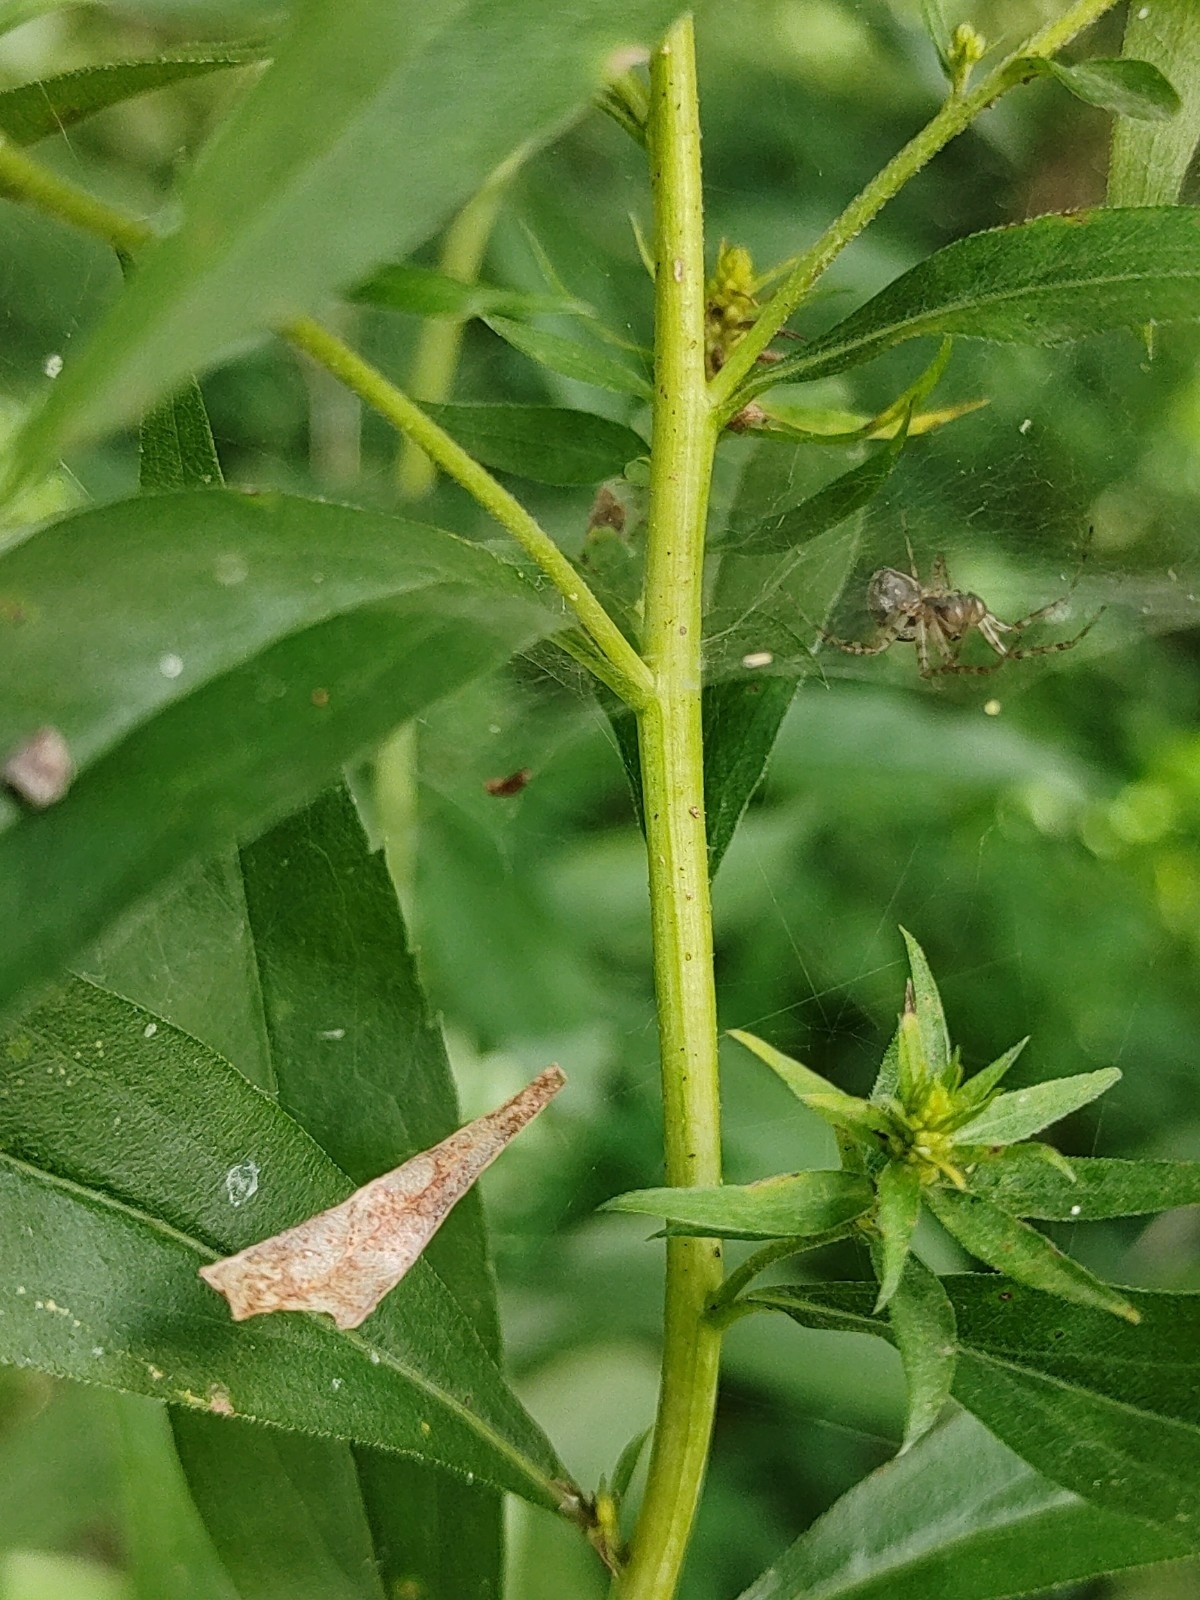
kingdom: Plantae
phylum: Tracheophyta
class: Magnoliopsida
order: Asterales
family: Asteraceae
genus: Solidago
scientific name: Solidago gigantea
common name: Giant goldenrod
